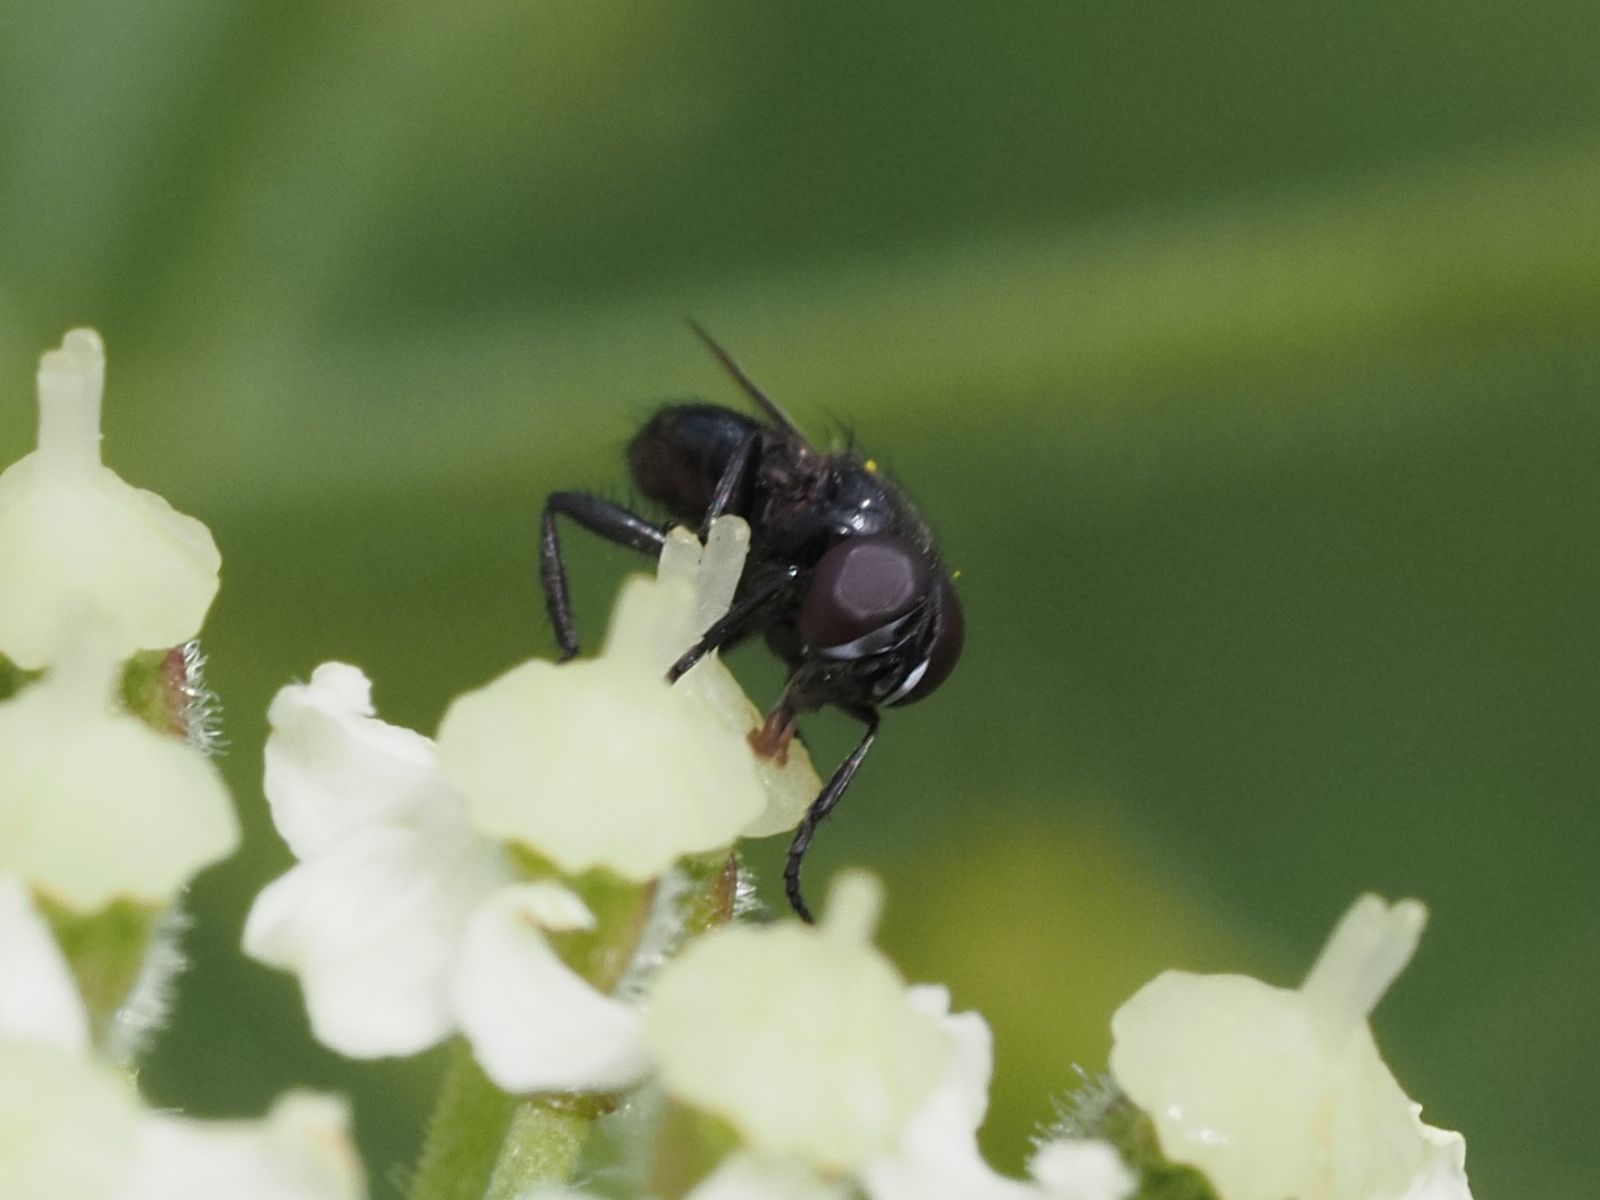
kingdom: Animalia
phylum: Arthropoda
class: Insecta
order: Diptera
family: Tachinidae
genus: Litophasia
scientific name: Litophasia hyalipennis
